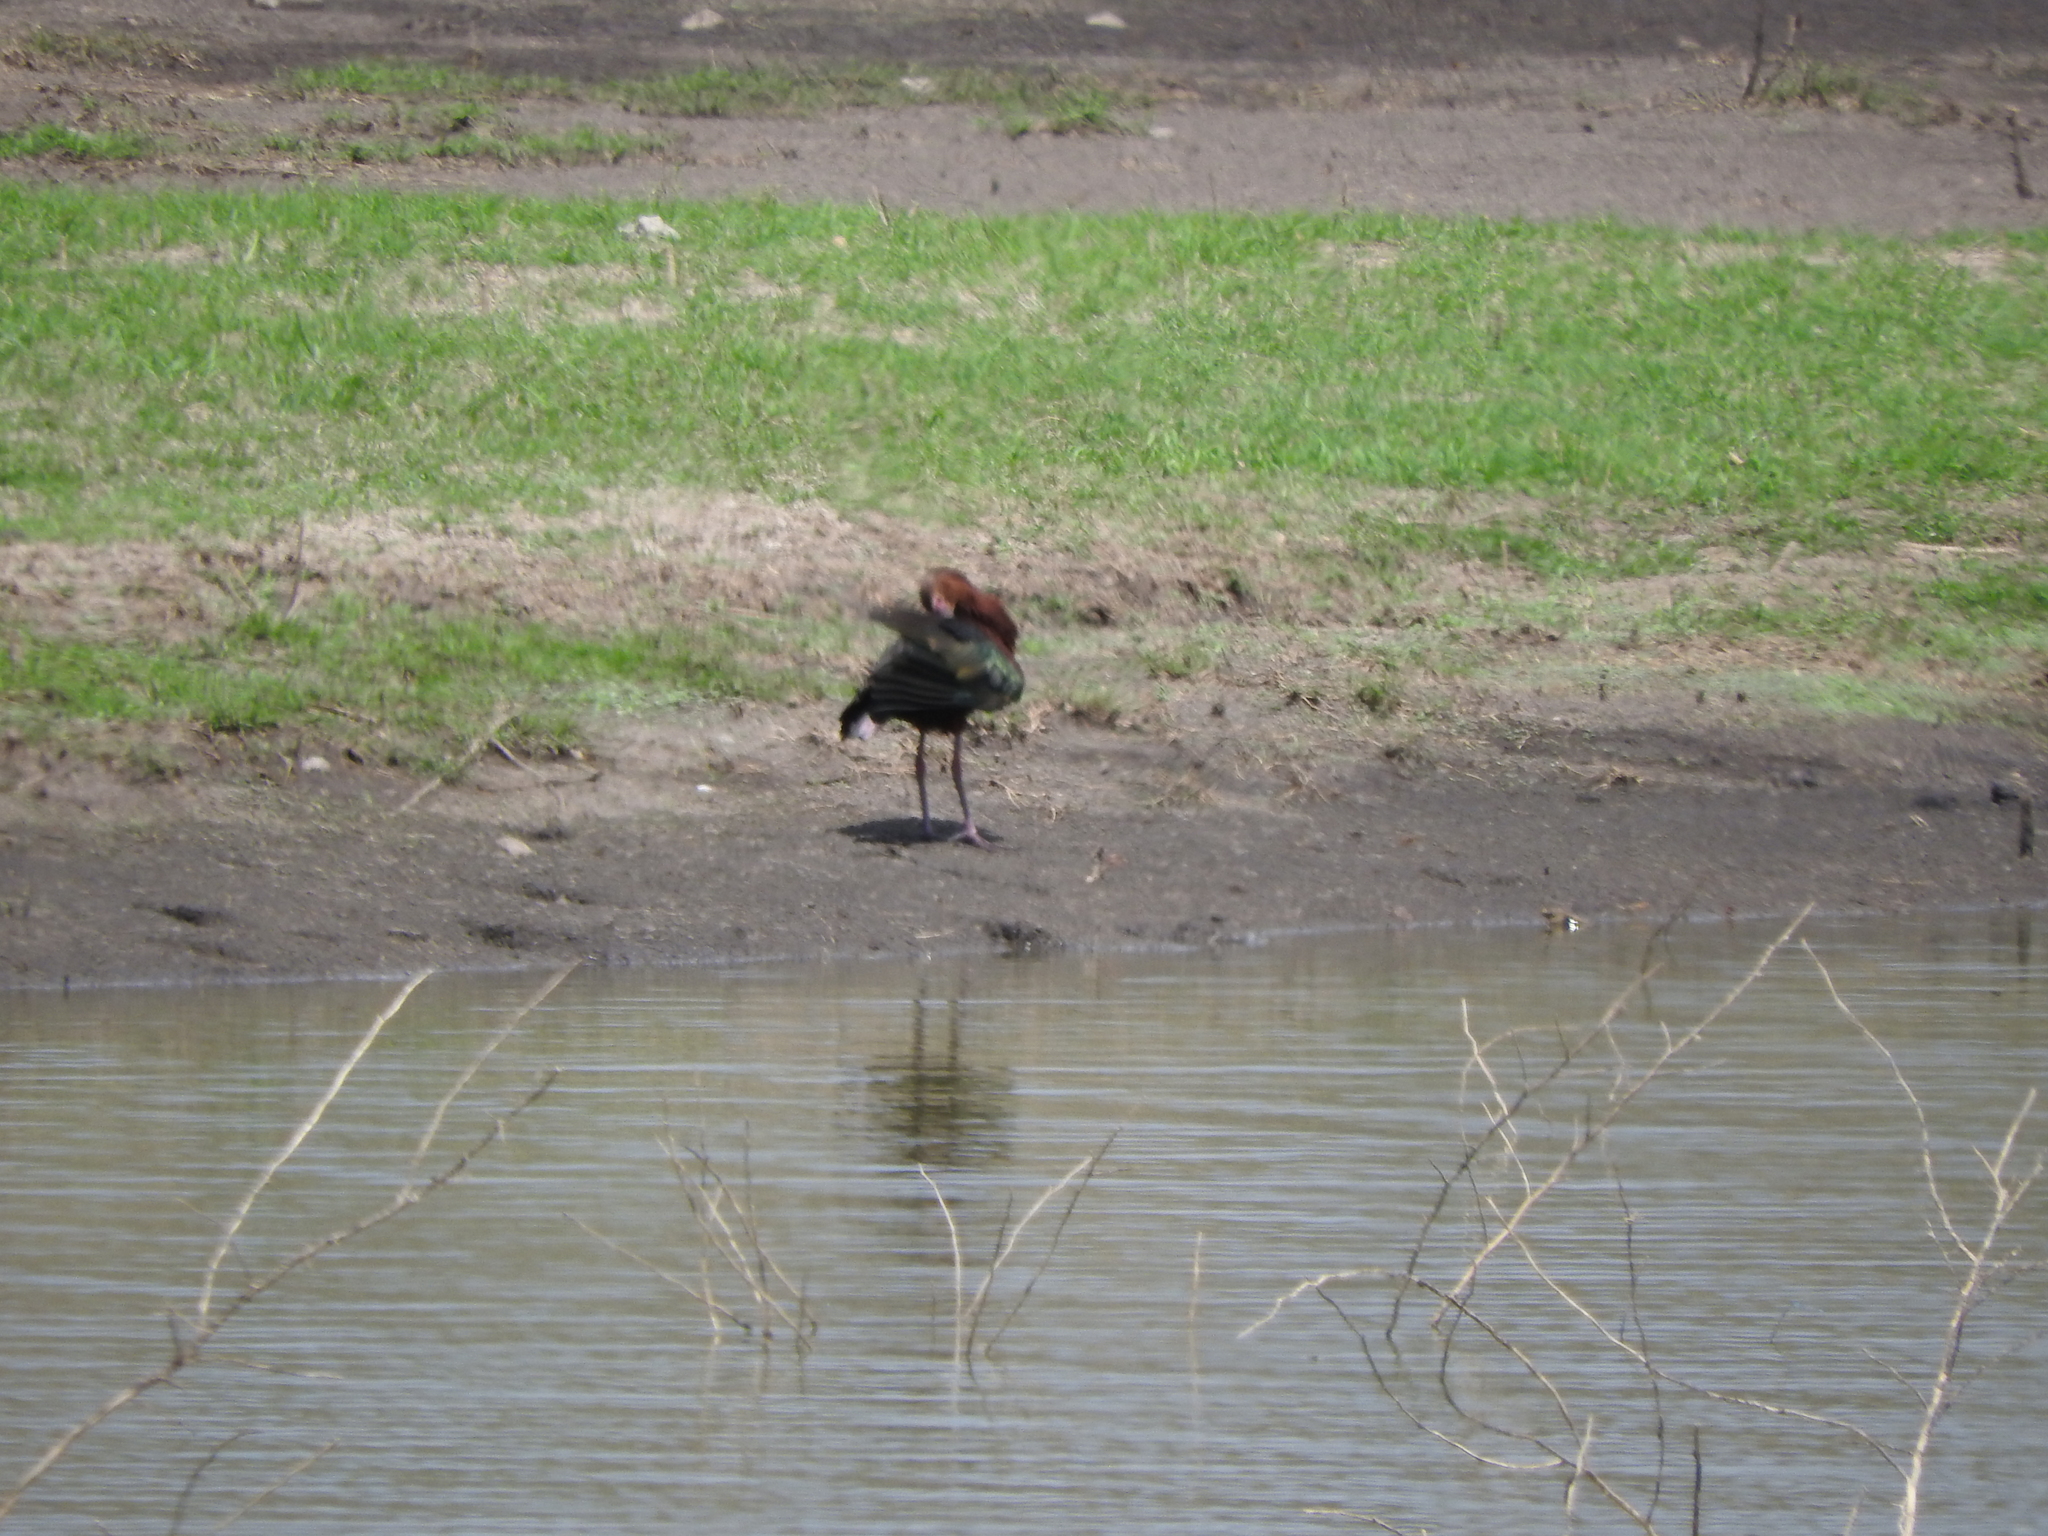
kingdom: Animalia
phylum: Chordata
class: Aves
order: Pelecaniformes
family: Threskiornithidae
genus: Plegadis
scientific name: Plegadis chihi
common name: White-faced ibis
